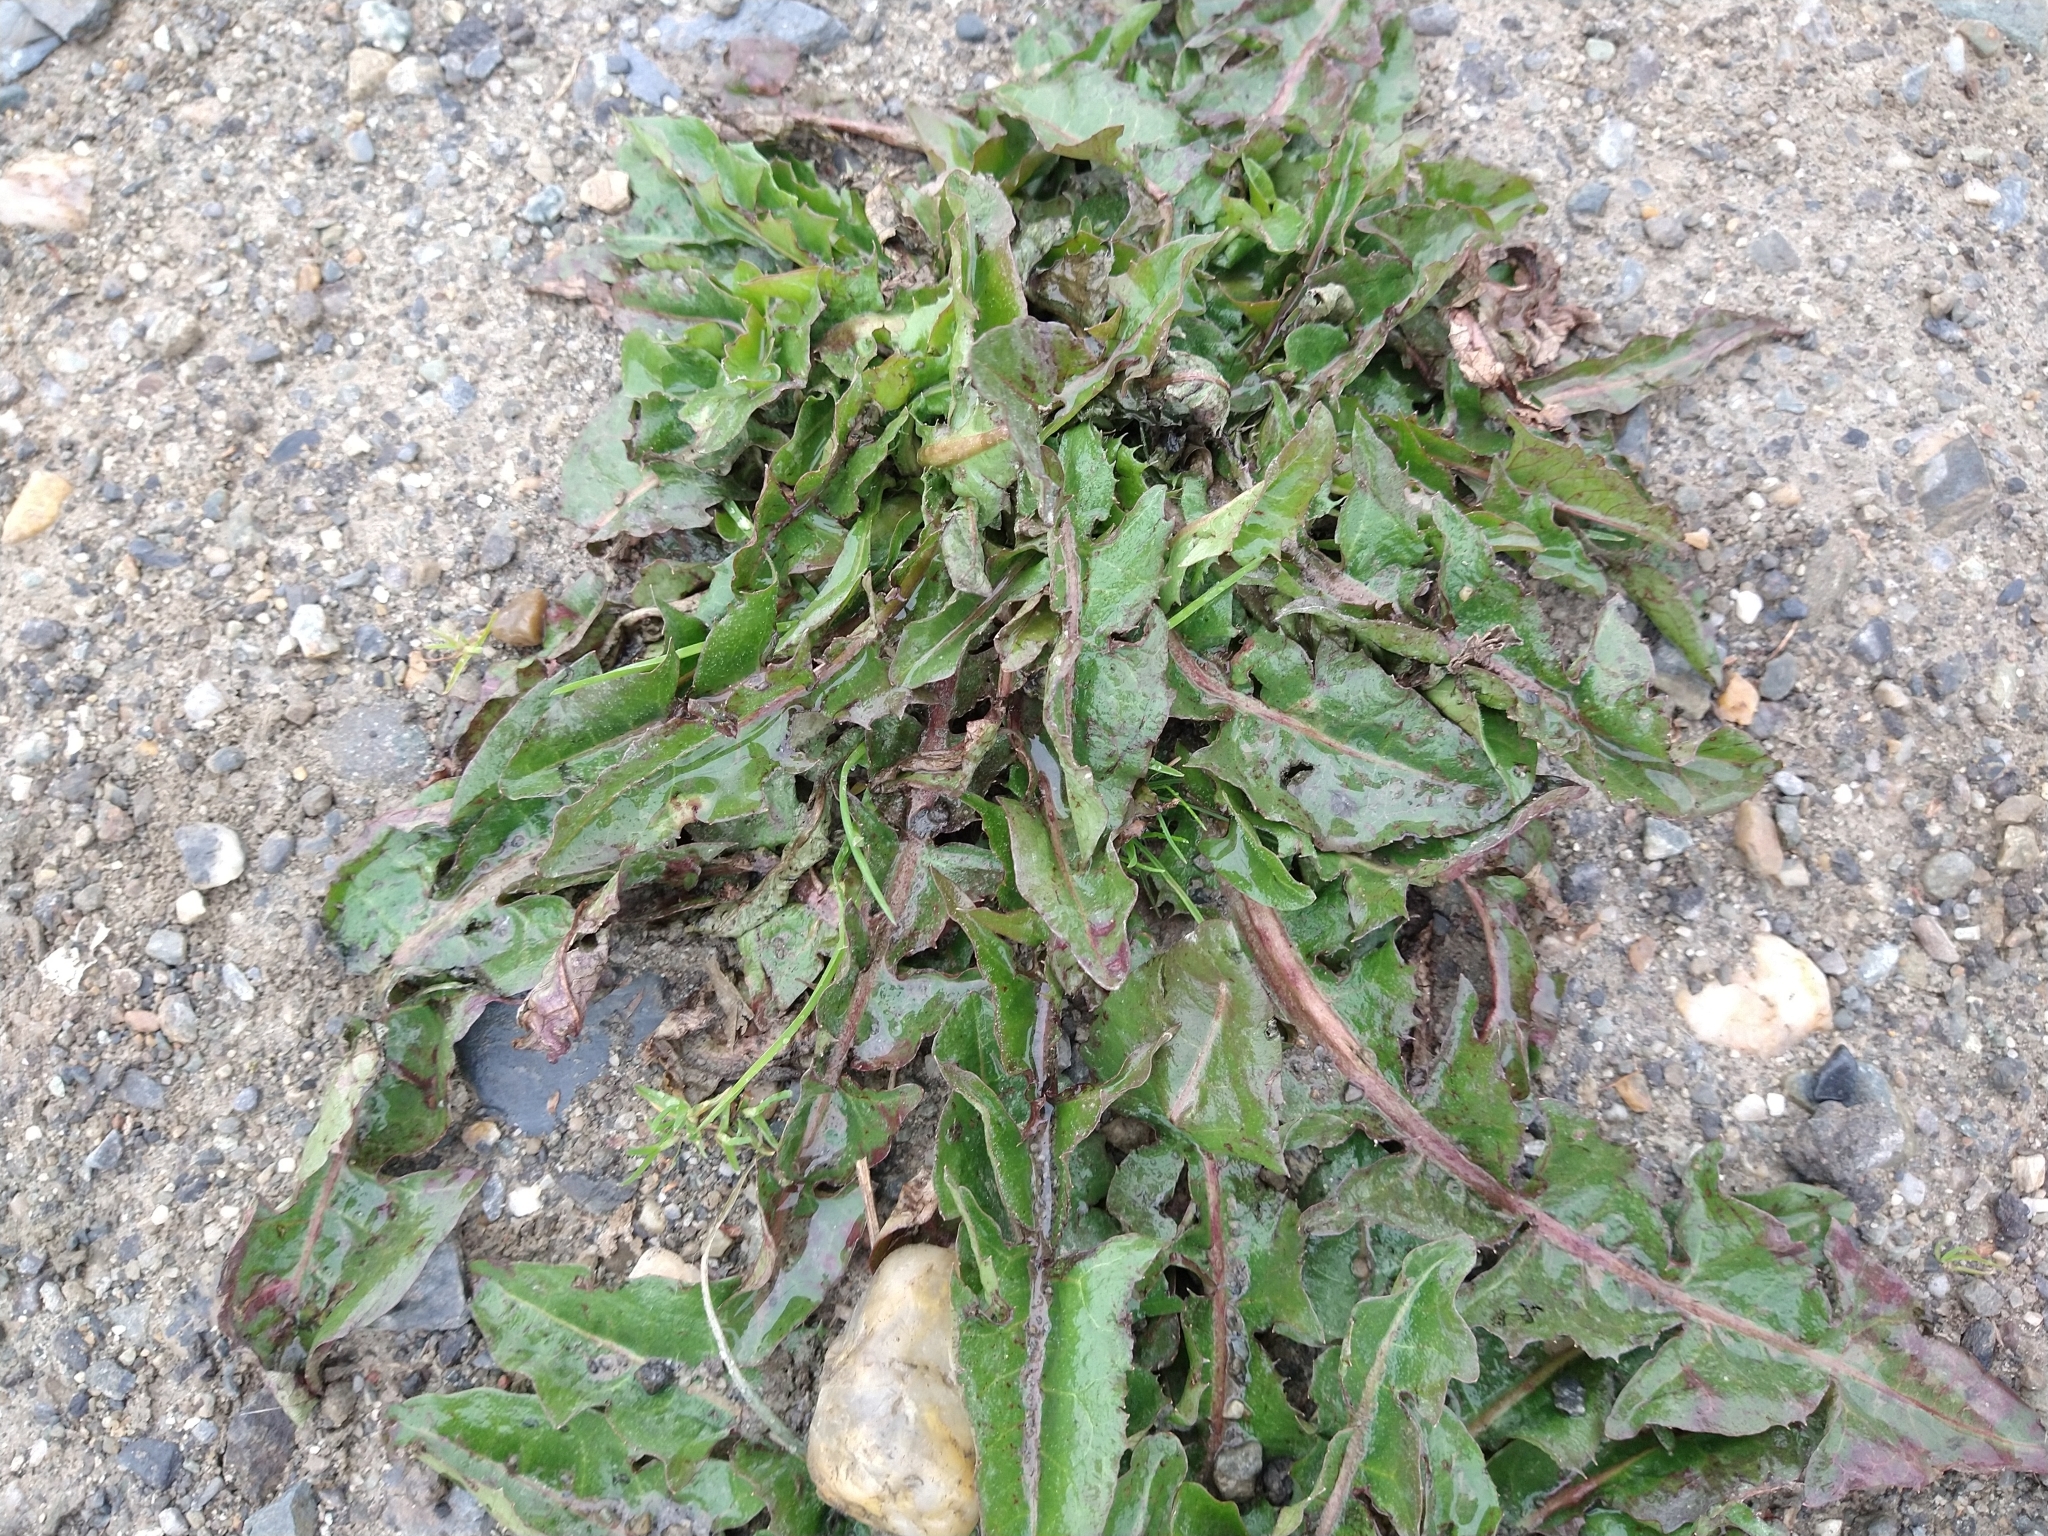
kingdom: Plantae
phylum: Tracheophyta
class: Magnoliopsida
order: Asterales
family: Asteraceae
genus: Taraxacum
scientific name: Taraxacum officinale
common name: Common dandelion
